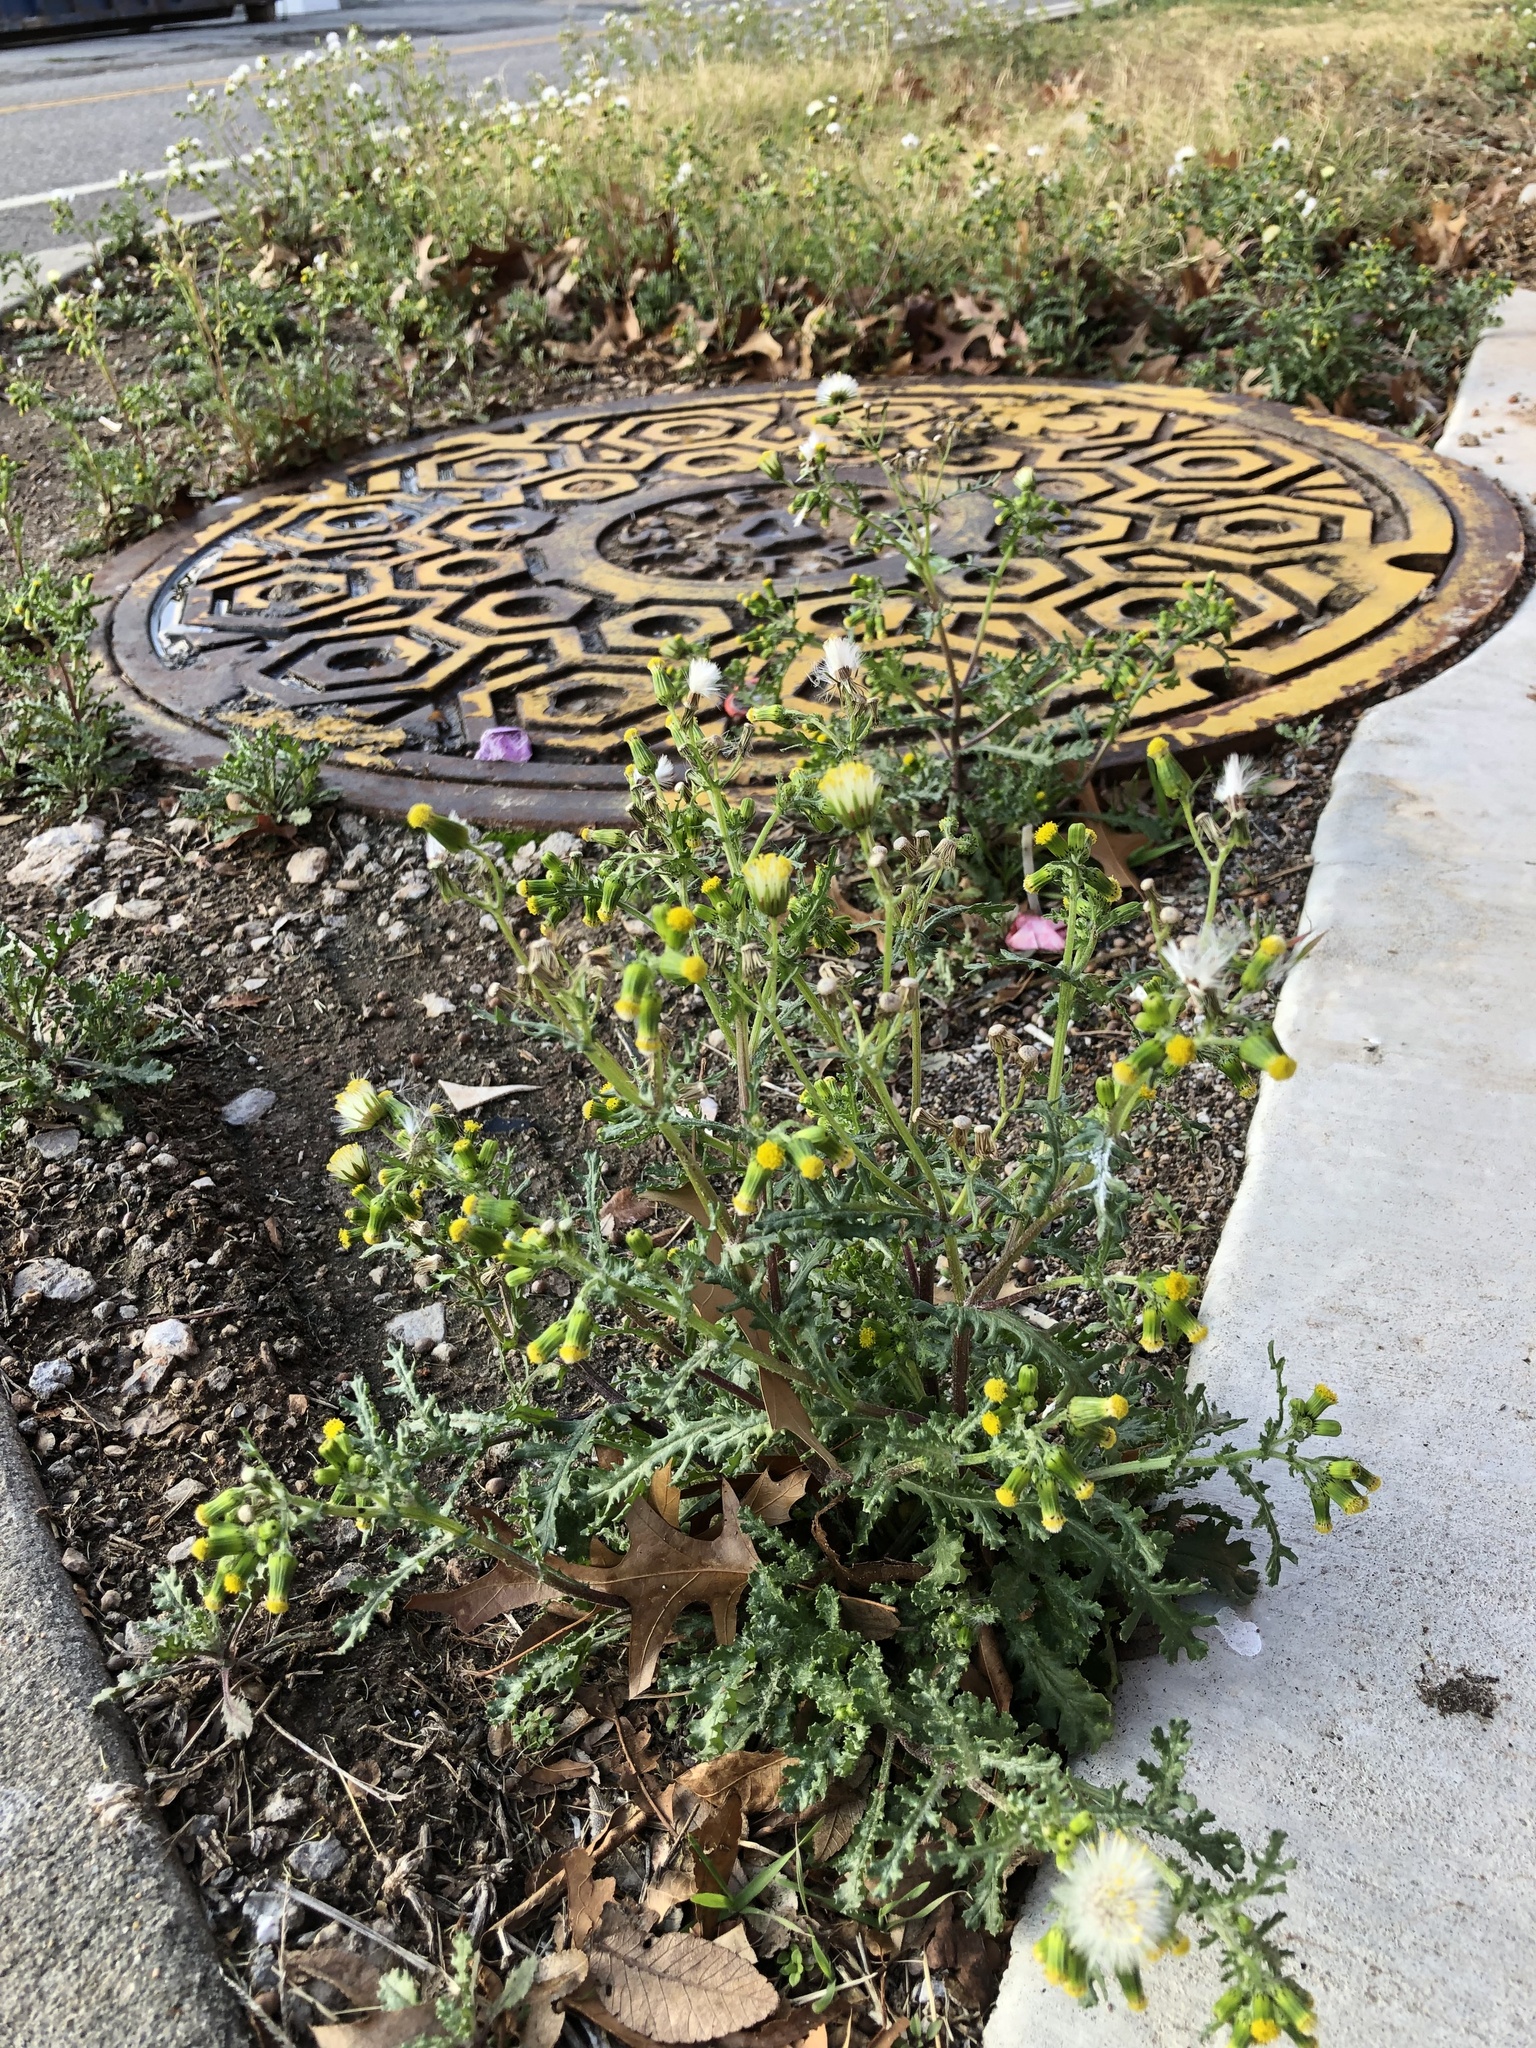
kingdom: Plantae
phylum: Tracheophyta
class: Magnoliopsida
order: Asterales
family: Asteraceae
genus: Senecio
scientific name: Senecio vulgaris
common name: Old-man-in-the-spring
